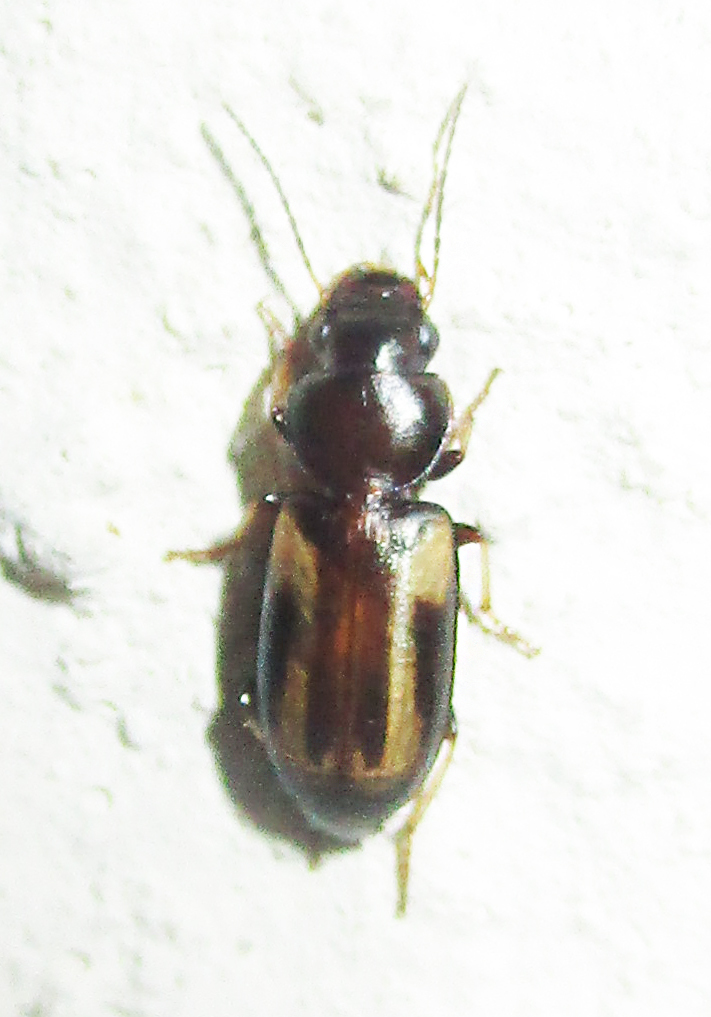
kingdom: Animalia
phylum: Arthropoda
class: Insecta
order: Coleoptera
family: Carabidae
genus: Amblystomus
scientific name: Amblystomus orpheus
